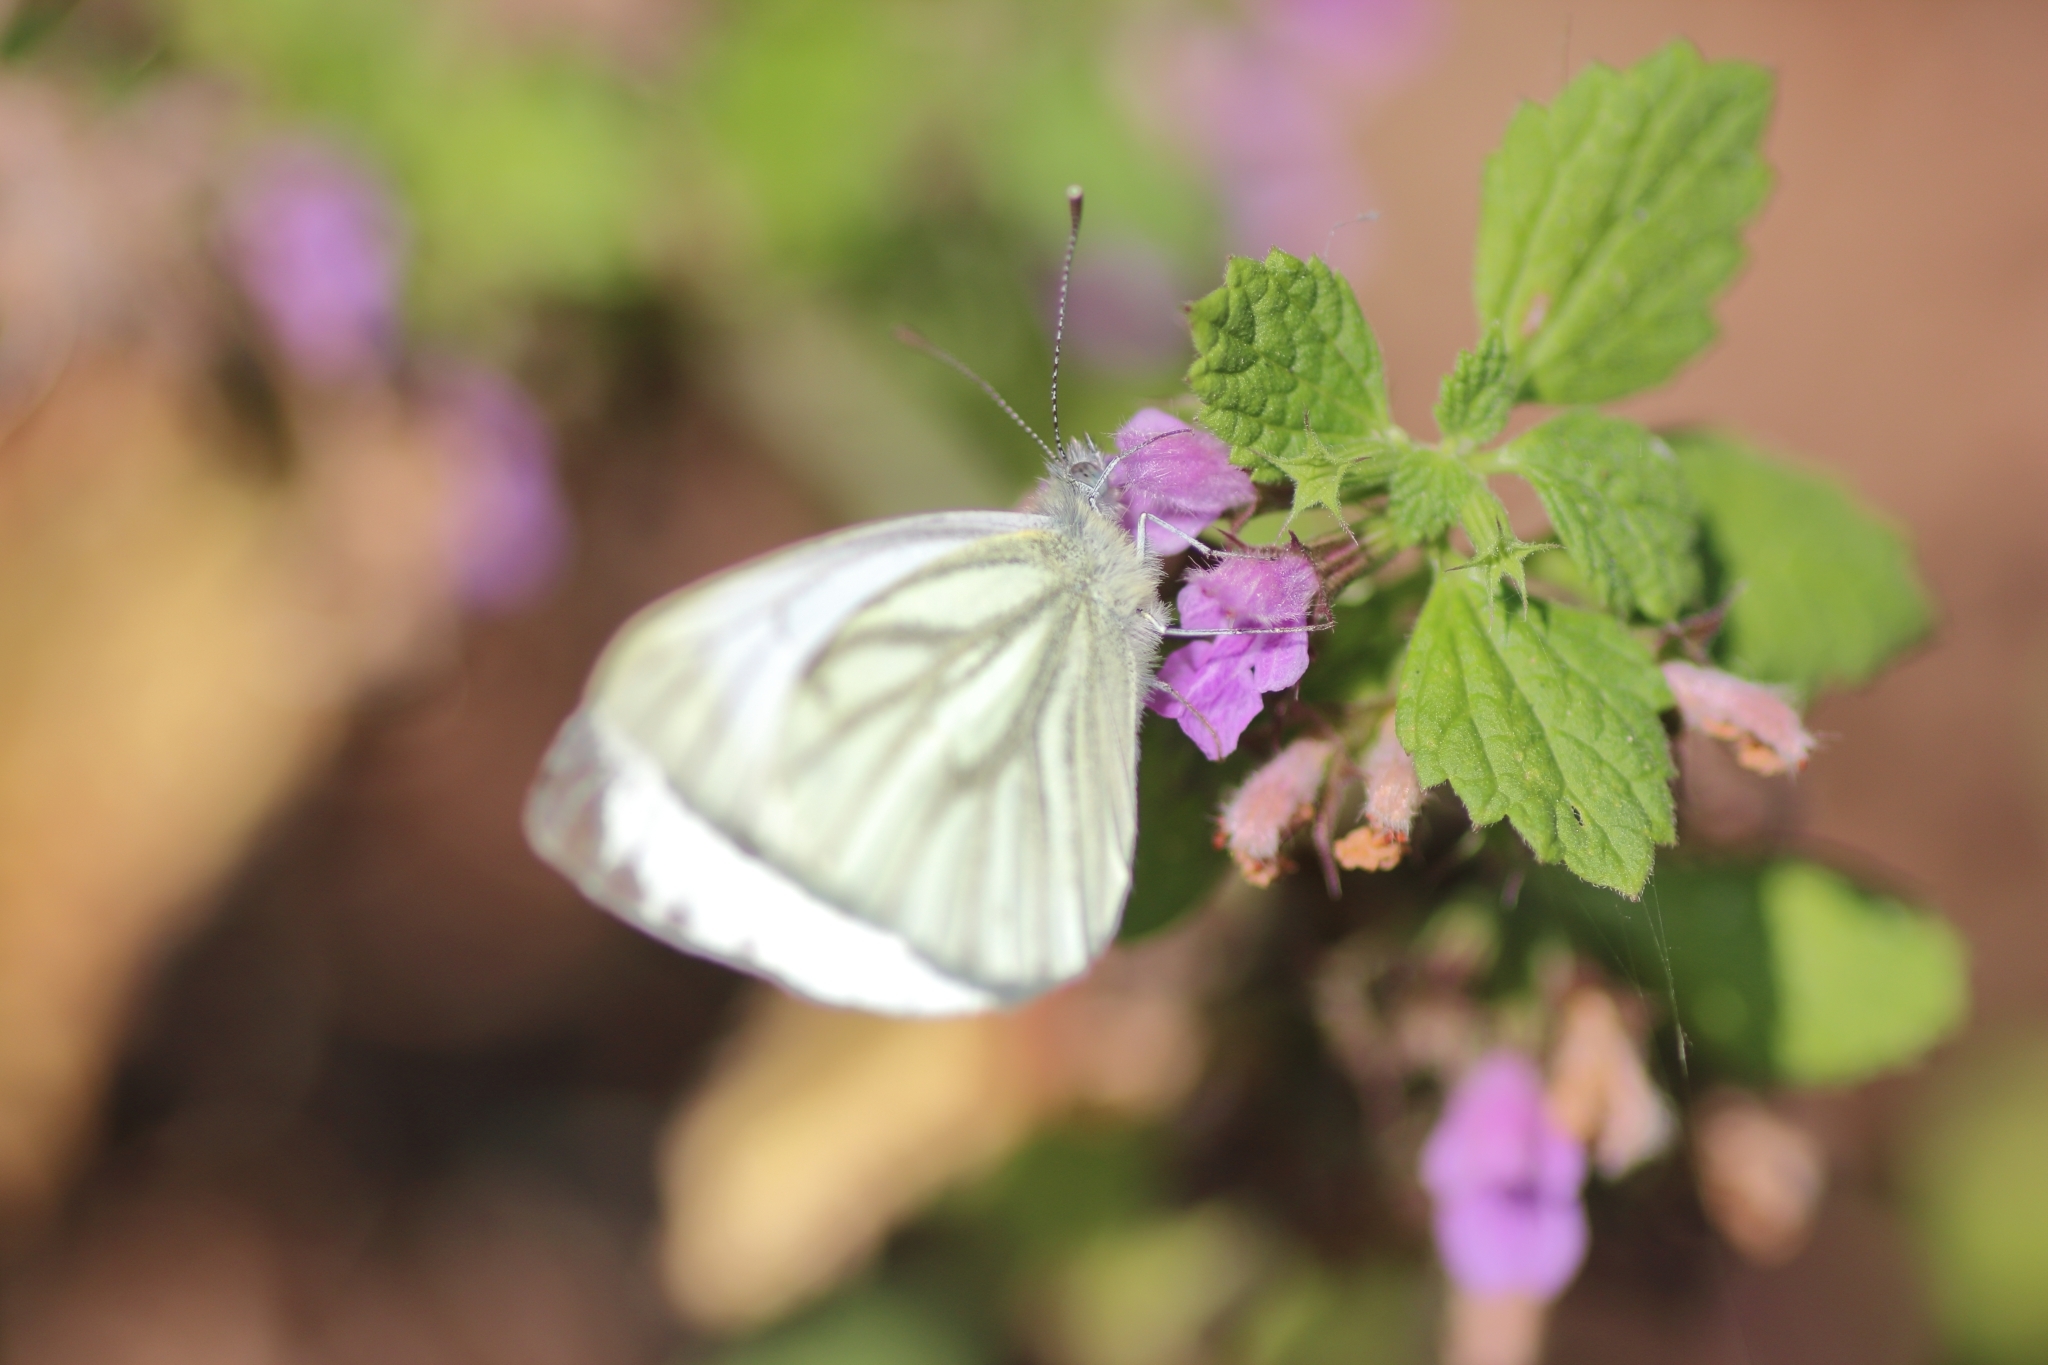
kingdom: Animalia
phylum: Arthropoda
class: Insecta
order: Lepidoptera
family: Pieridae
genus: Pieris
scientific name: Pieris napi
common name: Green-veined white
